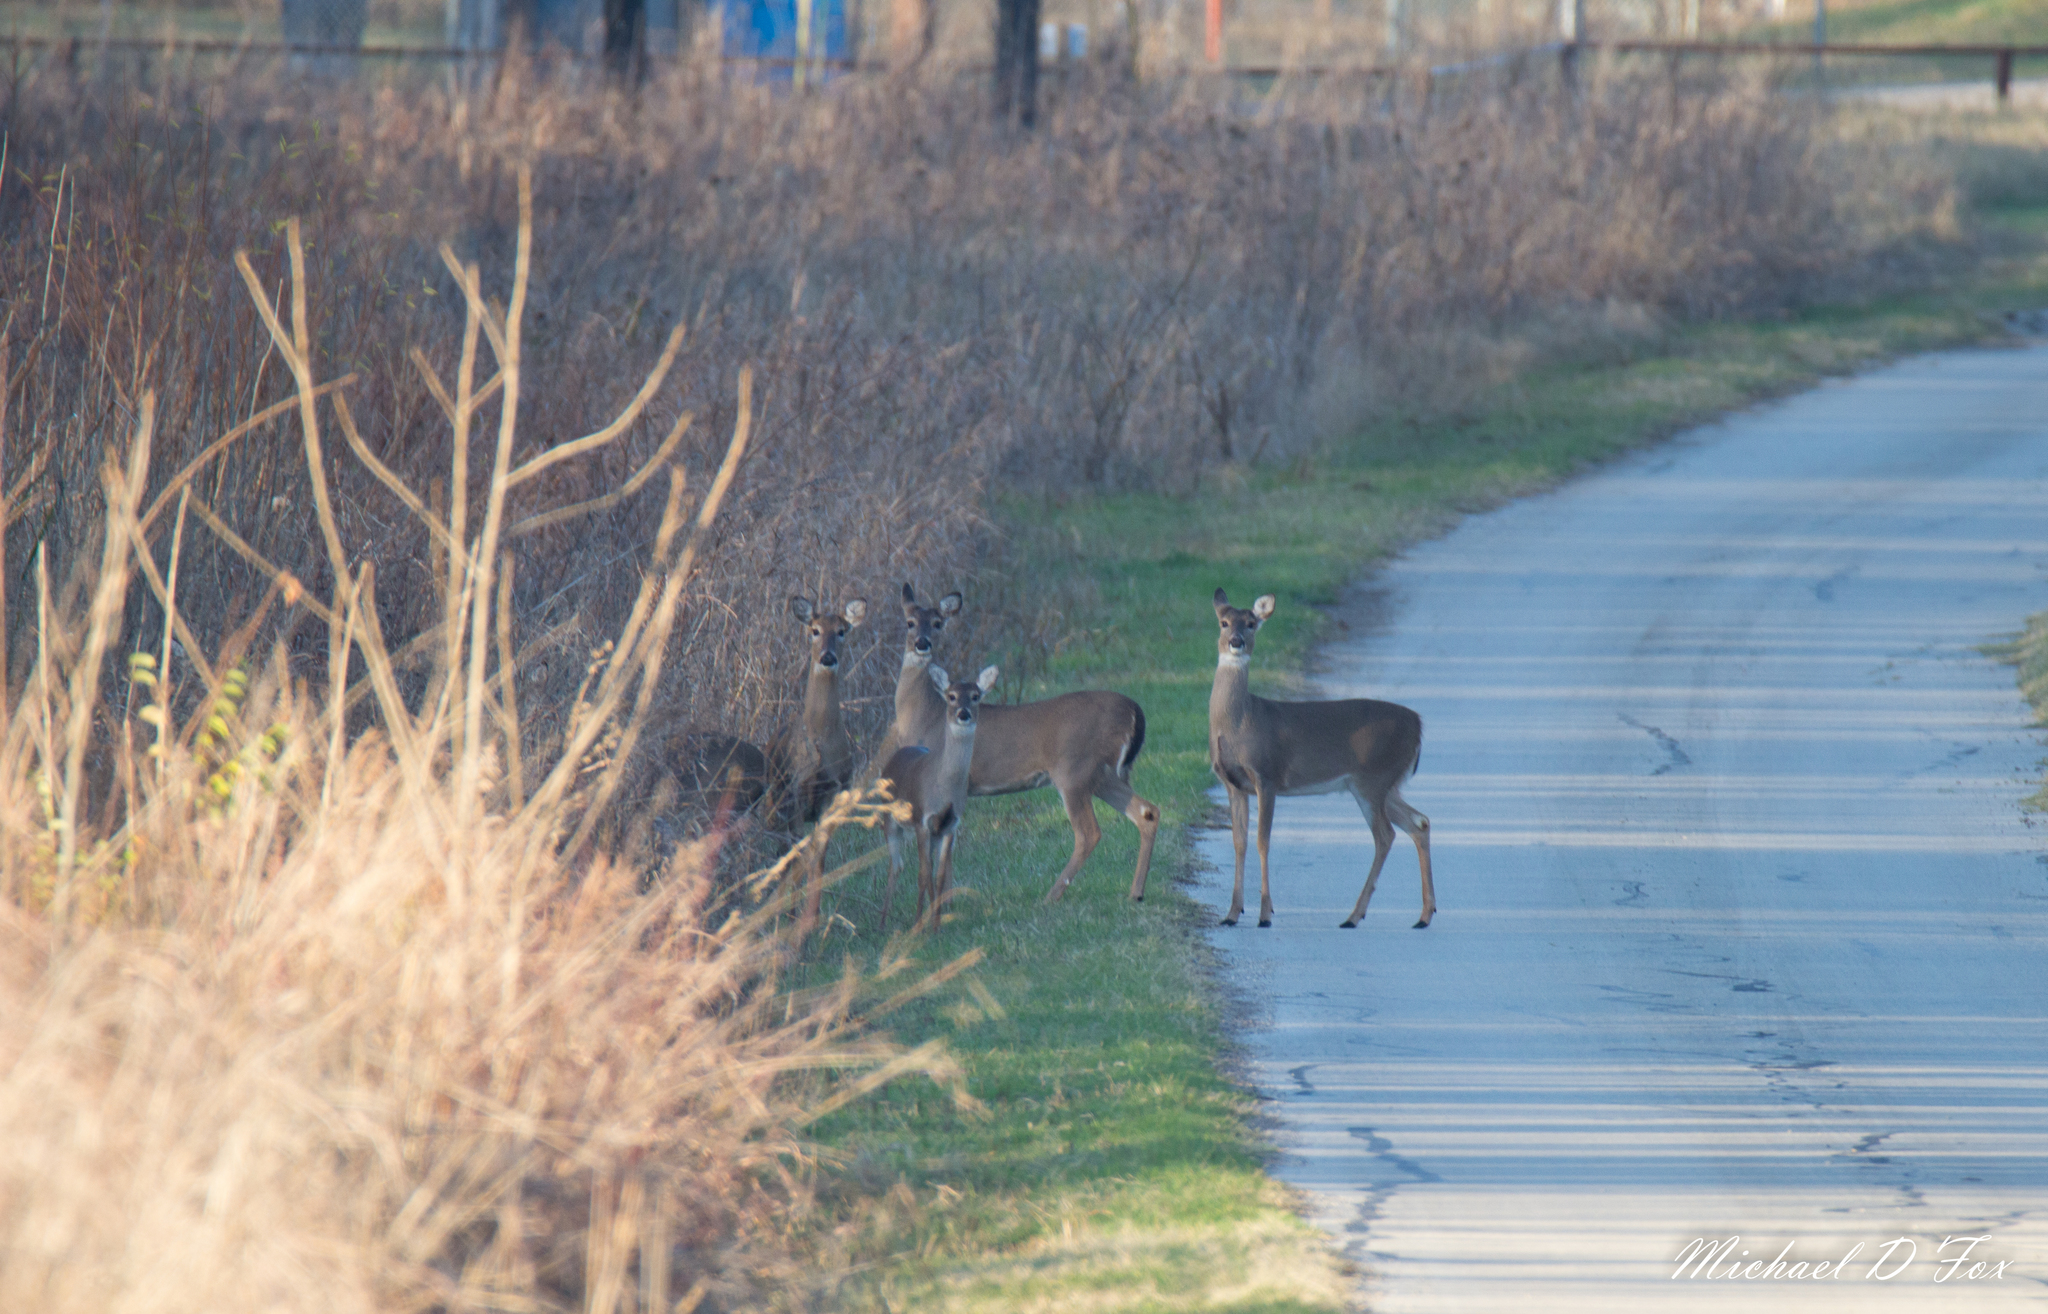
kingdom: Animalia
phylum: Chordata
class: Mammalia
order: Artiodactyla
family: Cervidae
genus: Odocoileus
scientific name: Odocoileus virginianus
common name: White-tailed deer
